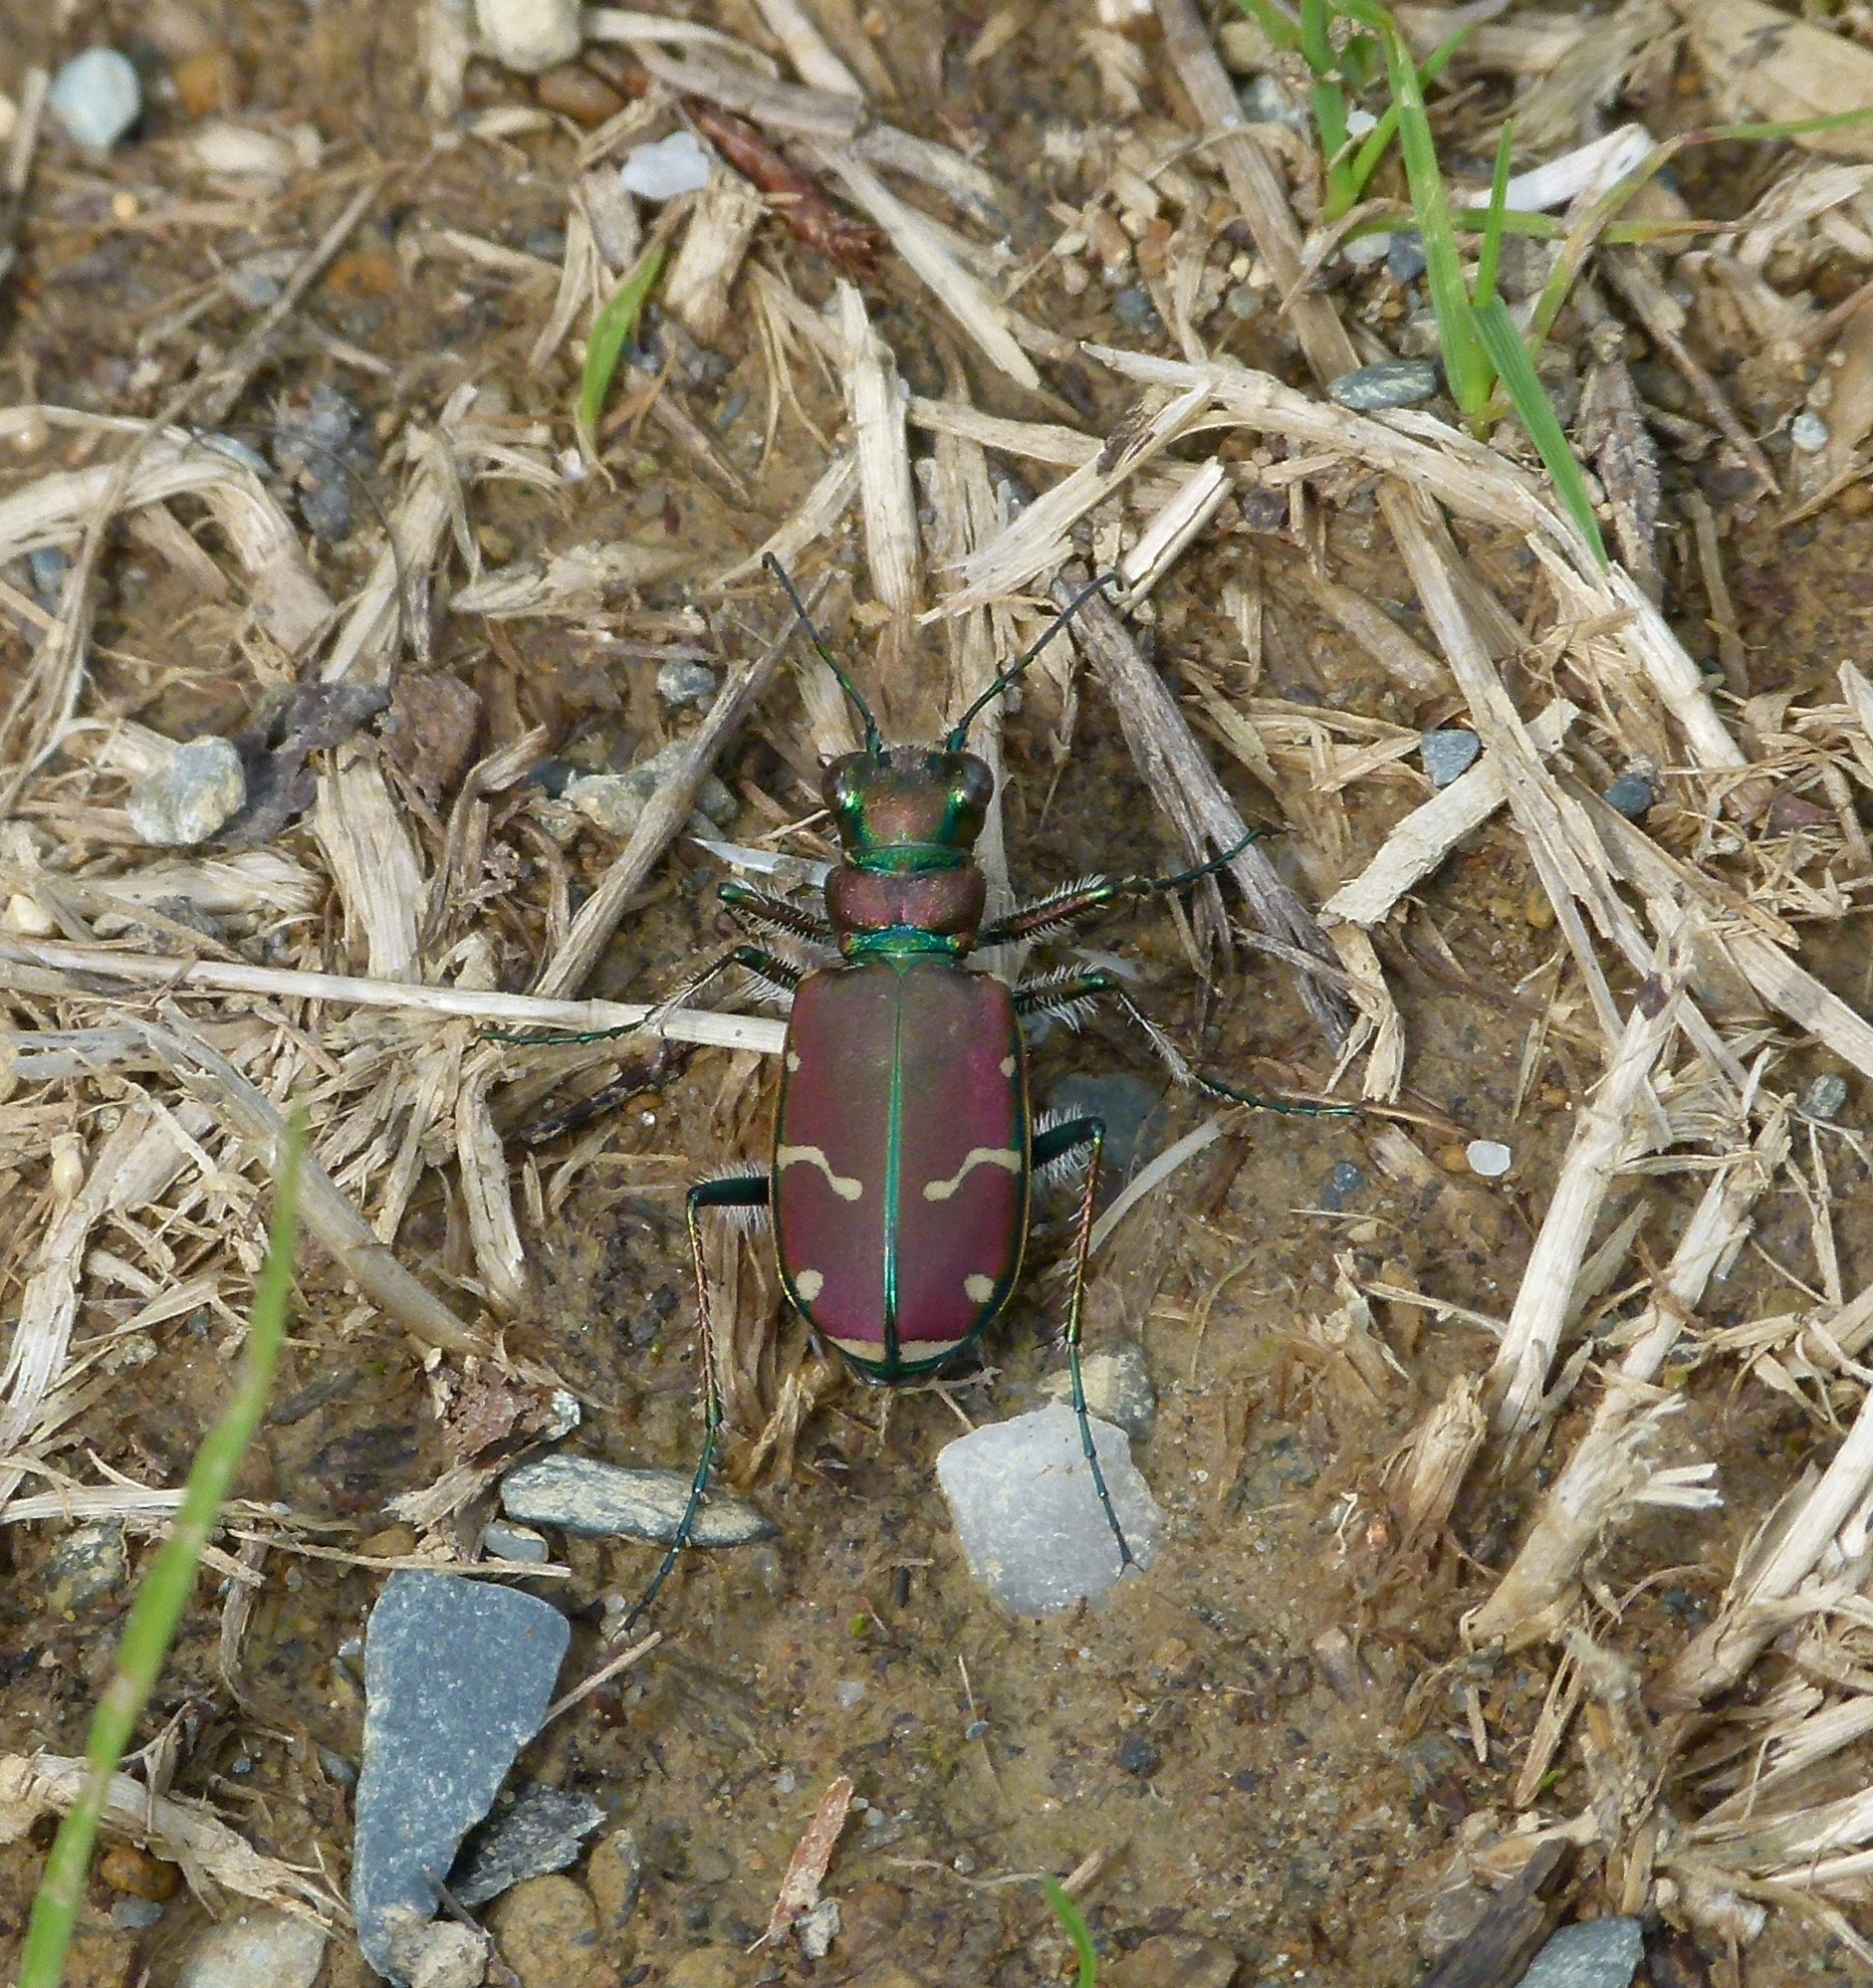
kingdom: Animalia
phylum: Arthropoda
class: Insecta
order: Coleoptera
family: Carabidae
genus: Cicindela
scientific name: Cicindela limbalis
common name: Common claybank tiger beetle
